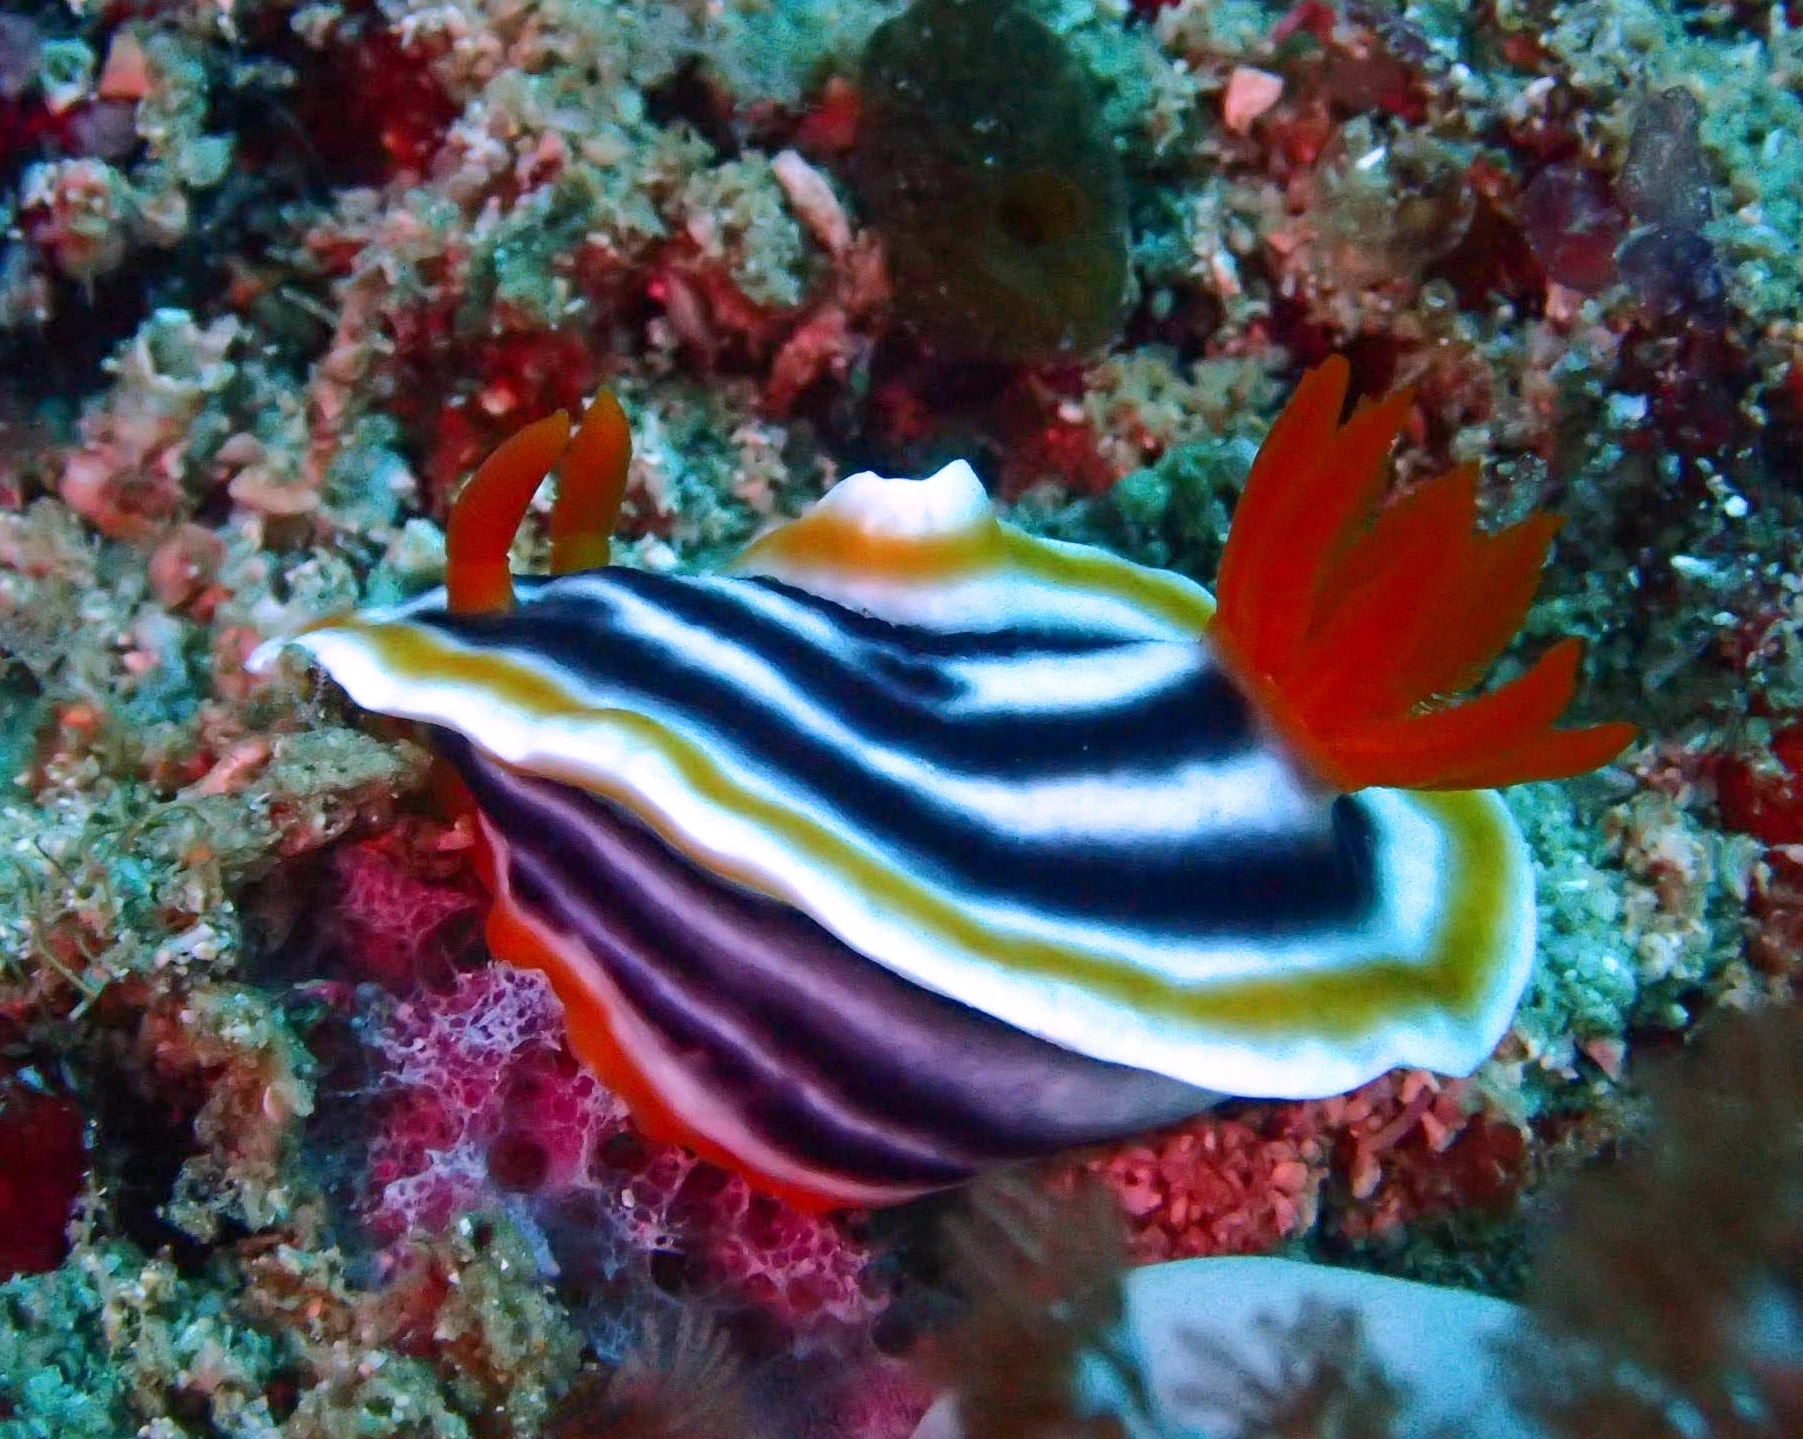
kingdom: Animalia
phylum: Mollusca
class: Gastropoda
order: Nudibranchia
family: Chromodorididae
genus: Chromodoris
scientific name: Chromodoris magnifica
